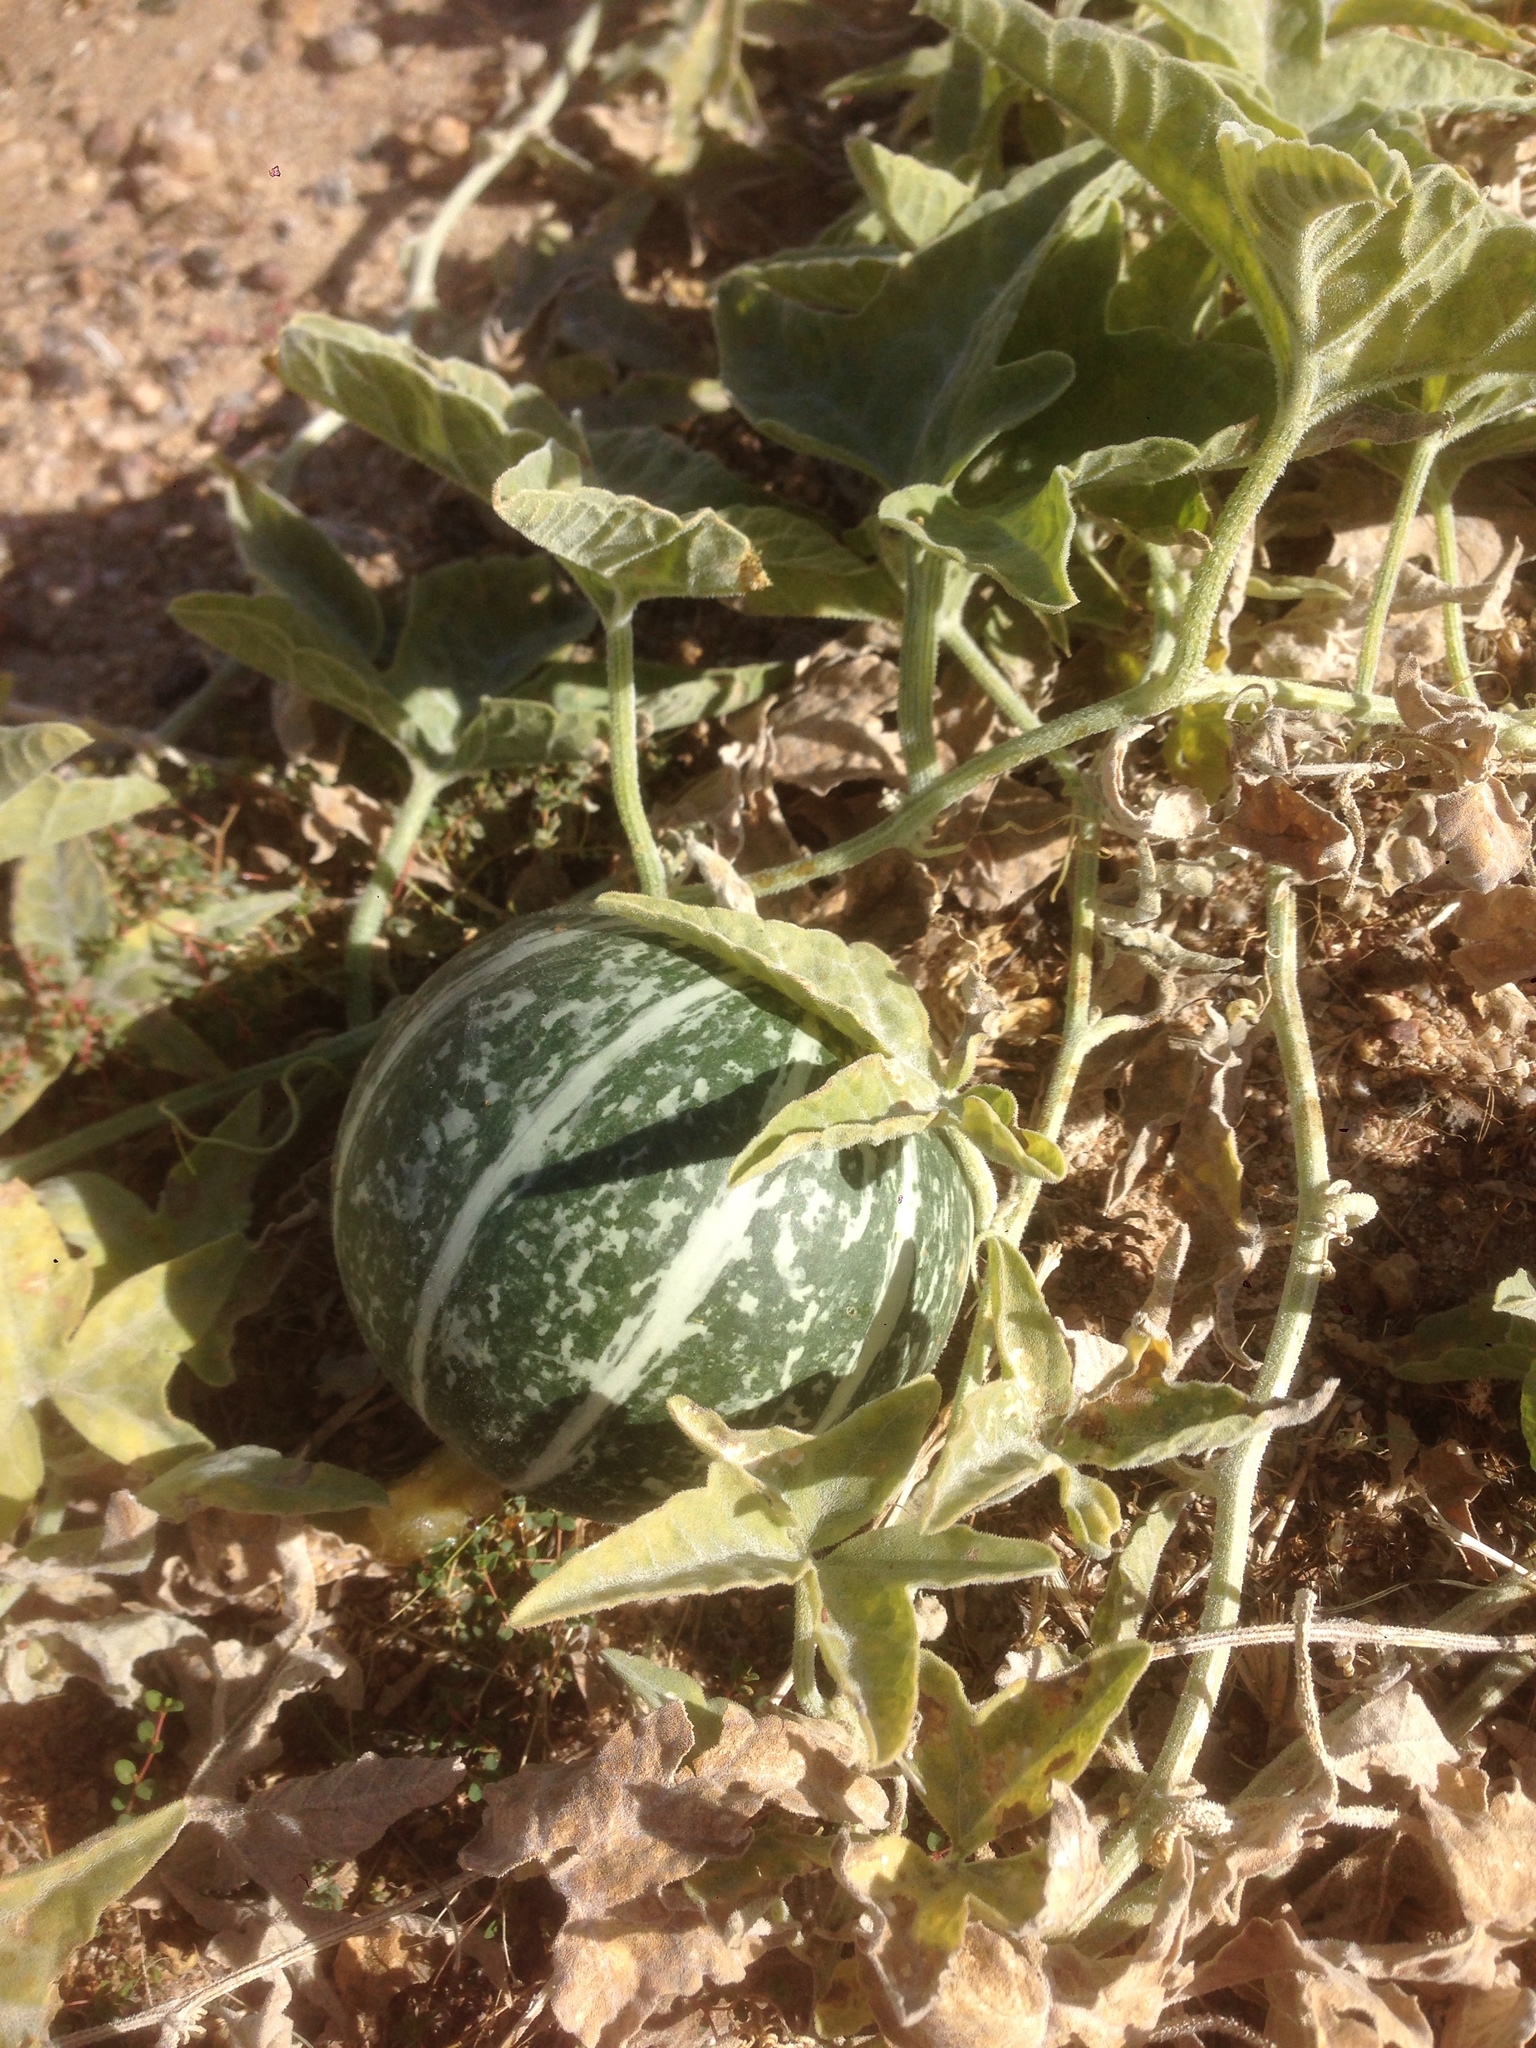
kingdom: Plantae
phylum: Tracheophyta
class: Magnoliopsida
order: Cucurbitales
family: Cucurbitaceae
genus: Cucurbita
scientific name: Cucurbita palmata
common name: Coyote-melon
